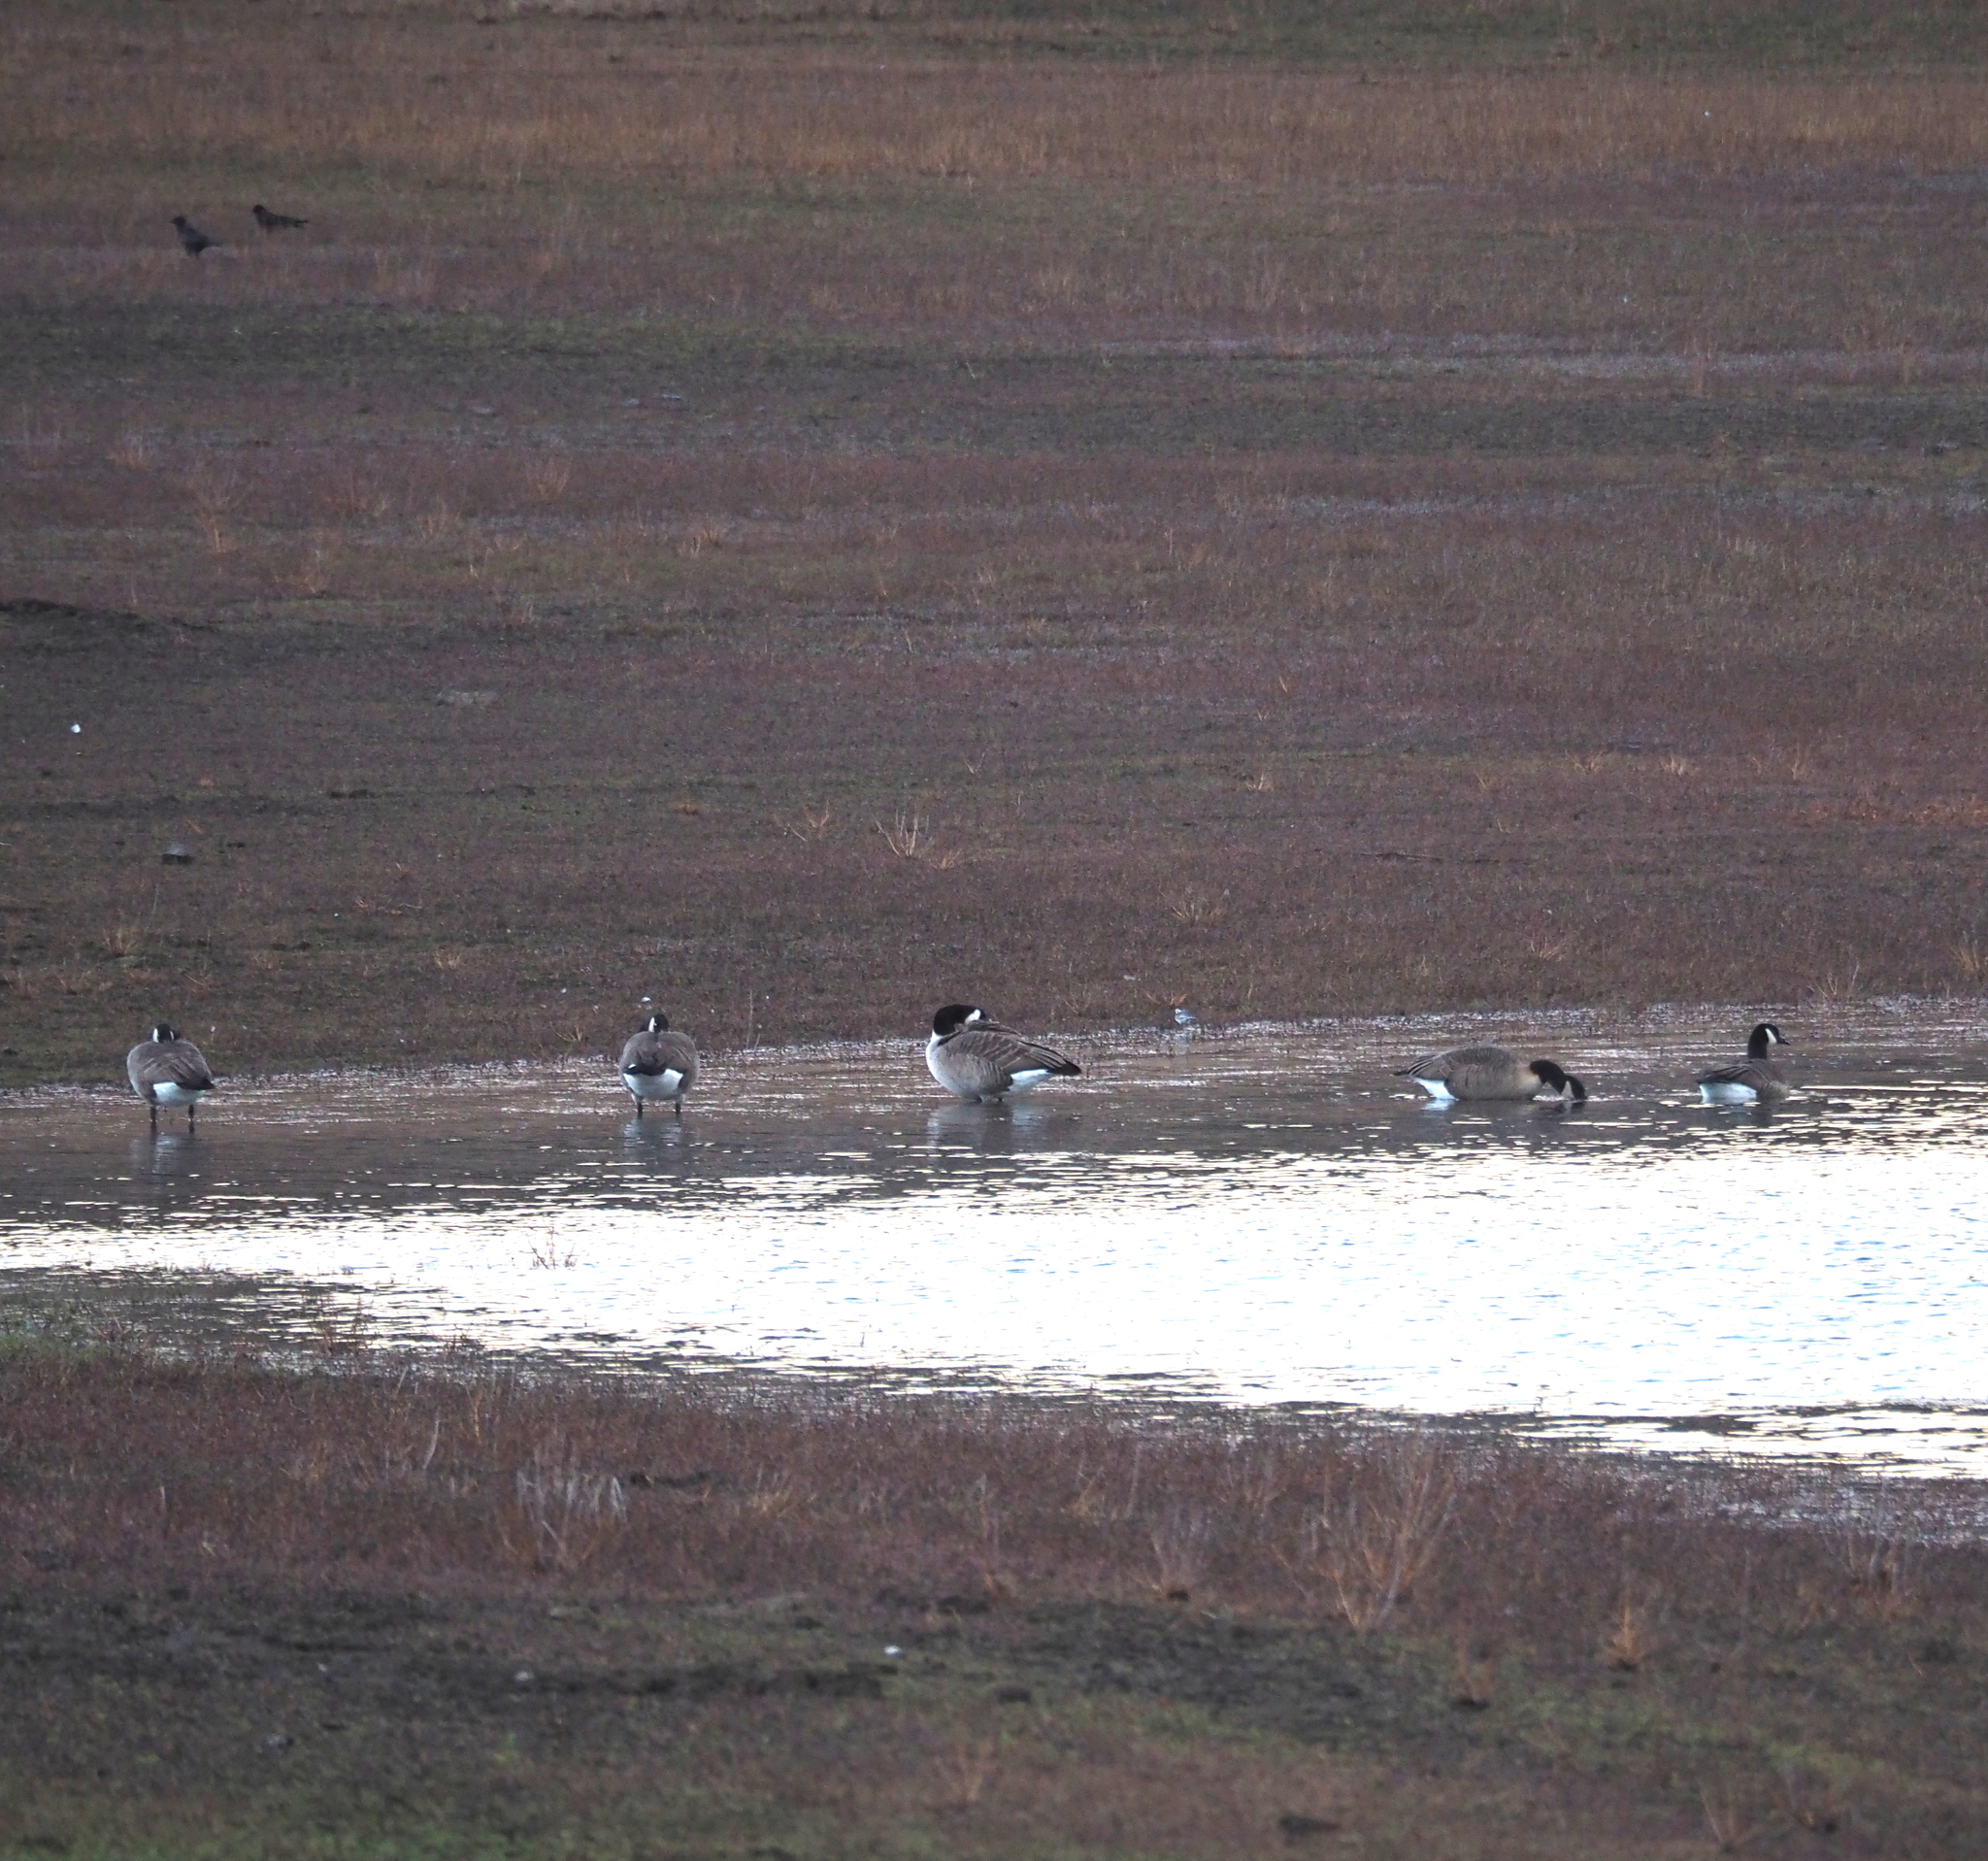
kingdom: Animalia
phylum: Chordata
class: Aves
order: Anseriformes
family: Anatidae
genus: Branta
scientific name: Branta canadensis
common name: Canada goose
